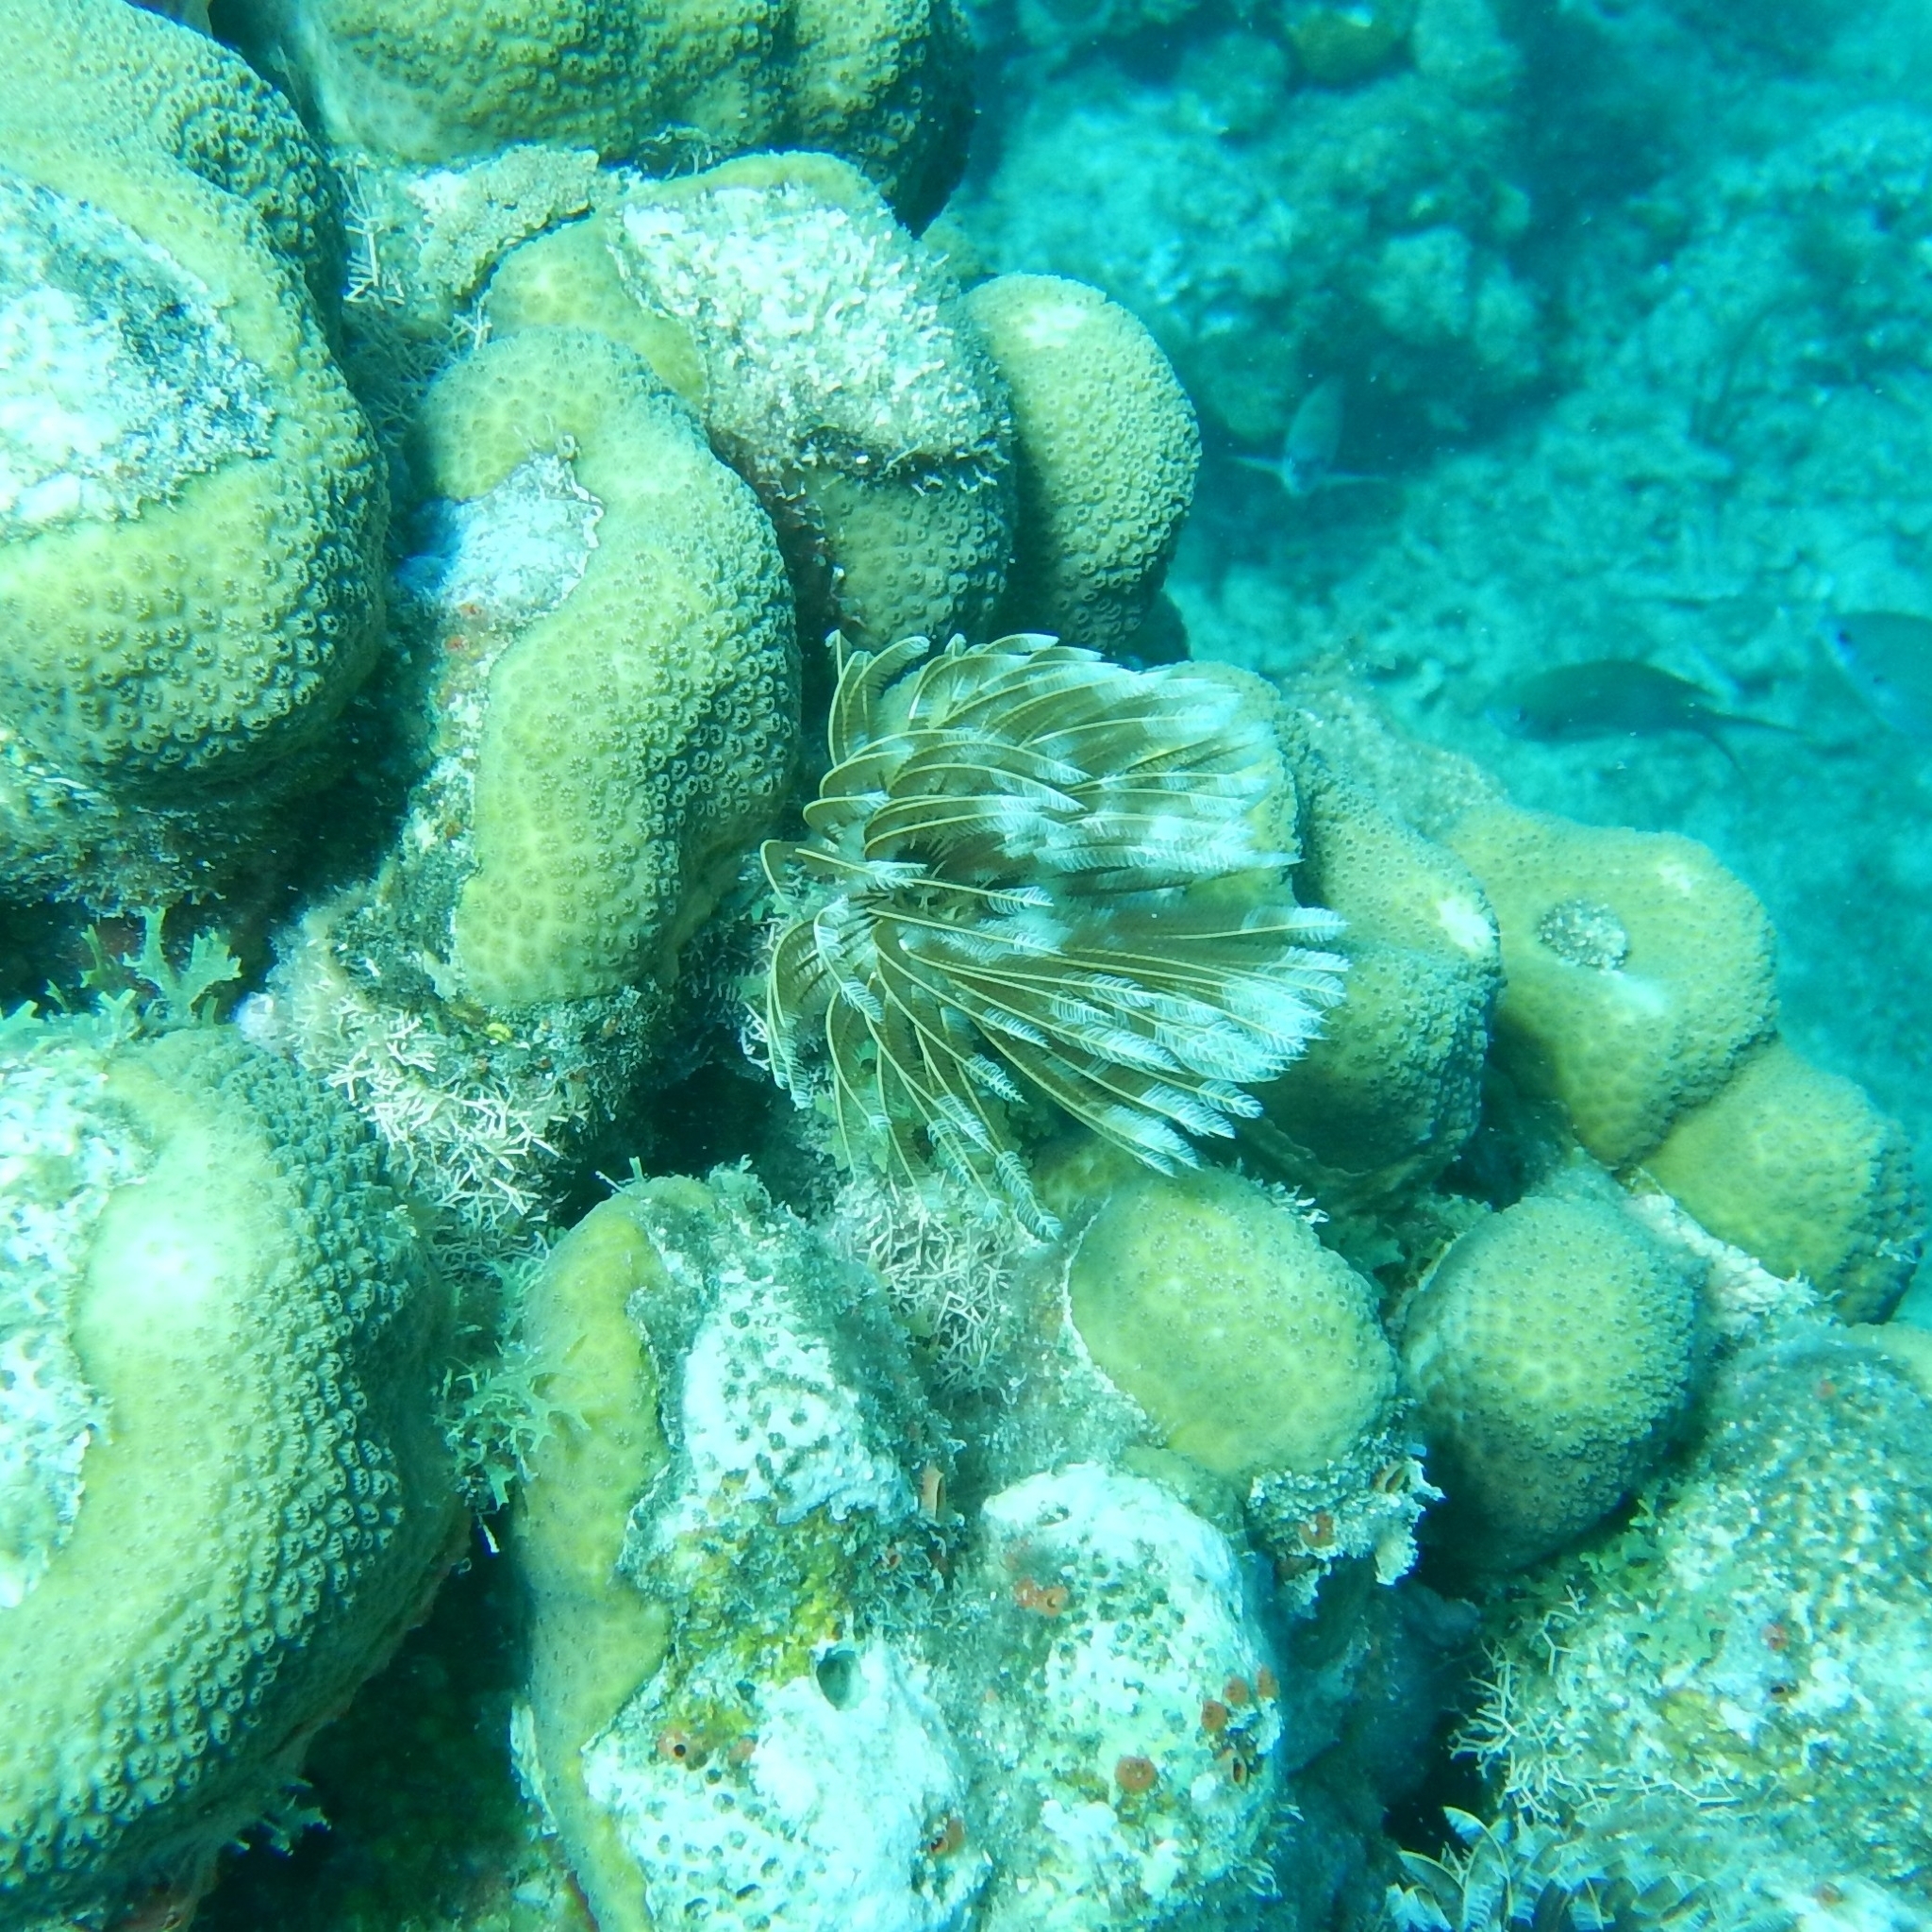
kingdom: Animalia
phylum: Annelida
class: Polychaeta
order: Sabellida
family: Sabellidae
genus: Sabellastarte
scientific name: Sabellastarte magnifica
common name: Giant feather-duster worm
